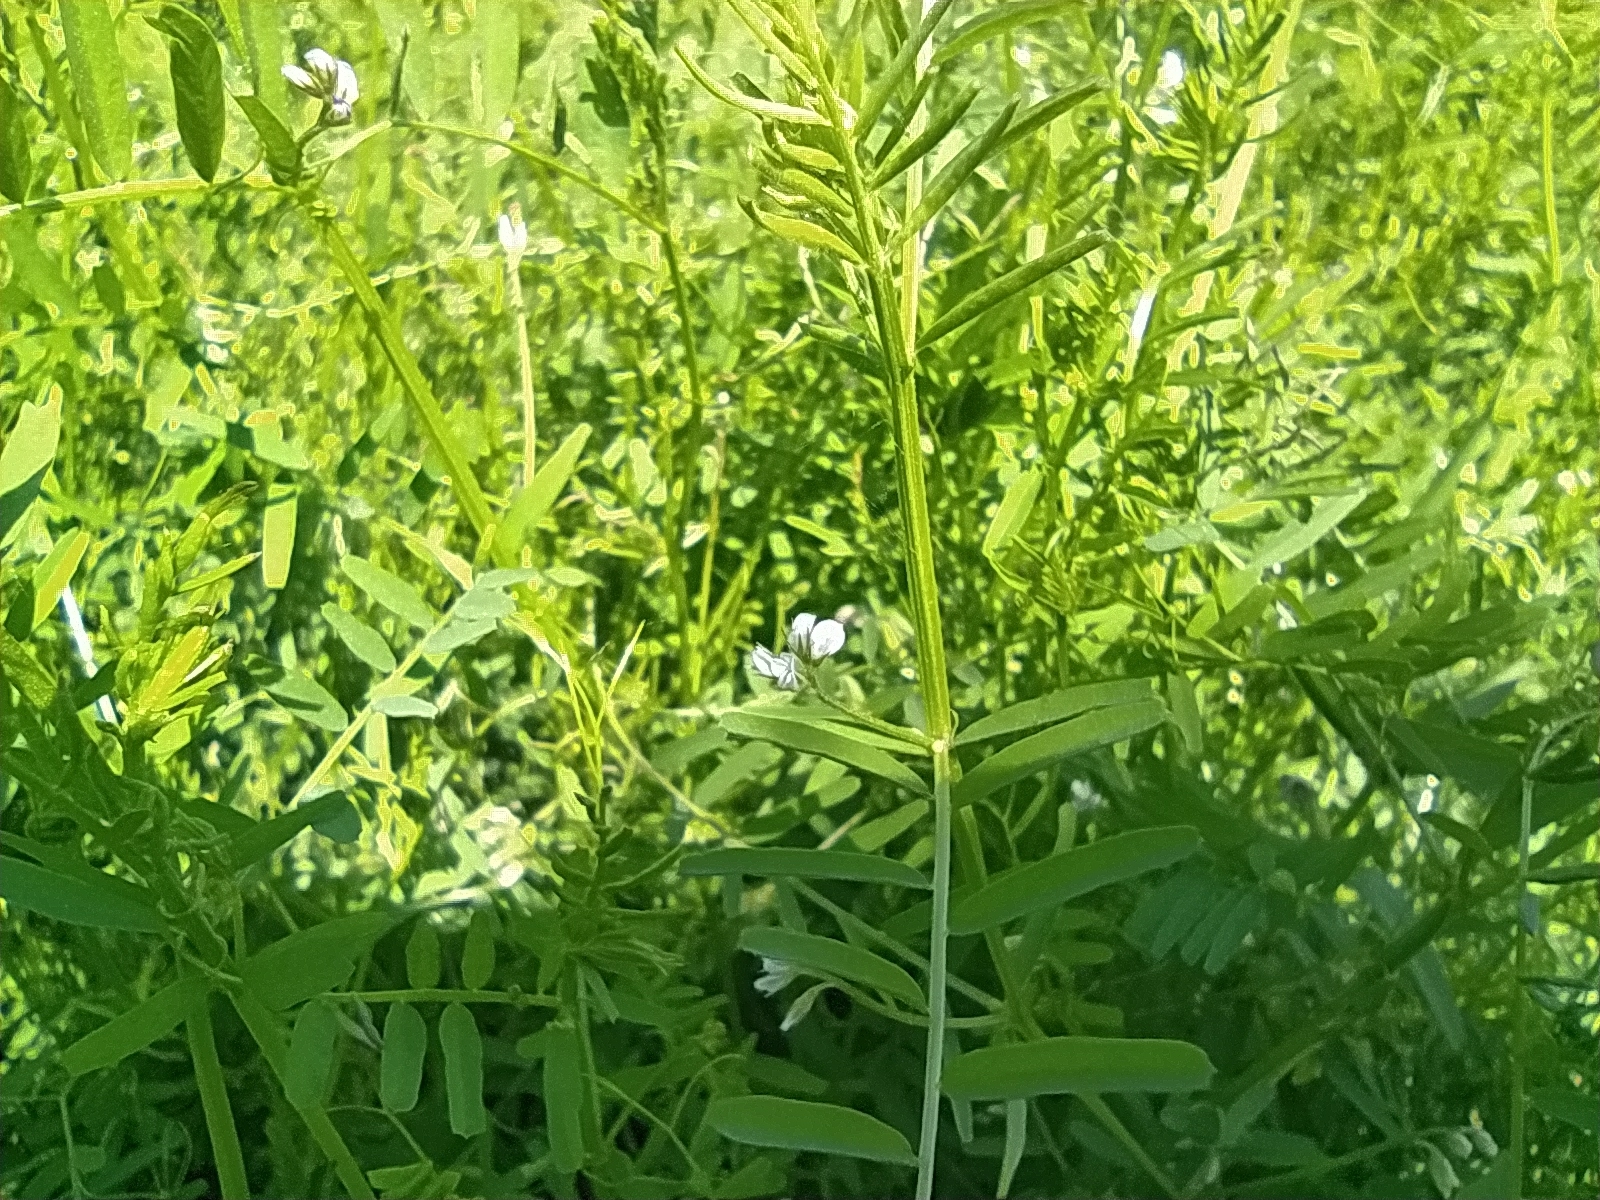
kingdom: Plantae
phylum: Tracheophyta
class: Magnoliopsida
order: Fabales
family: Fabaceae
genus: Vicia
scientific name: Vicia hirsuta
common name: Tiny vetch
